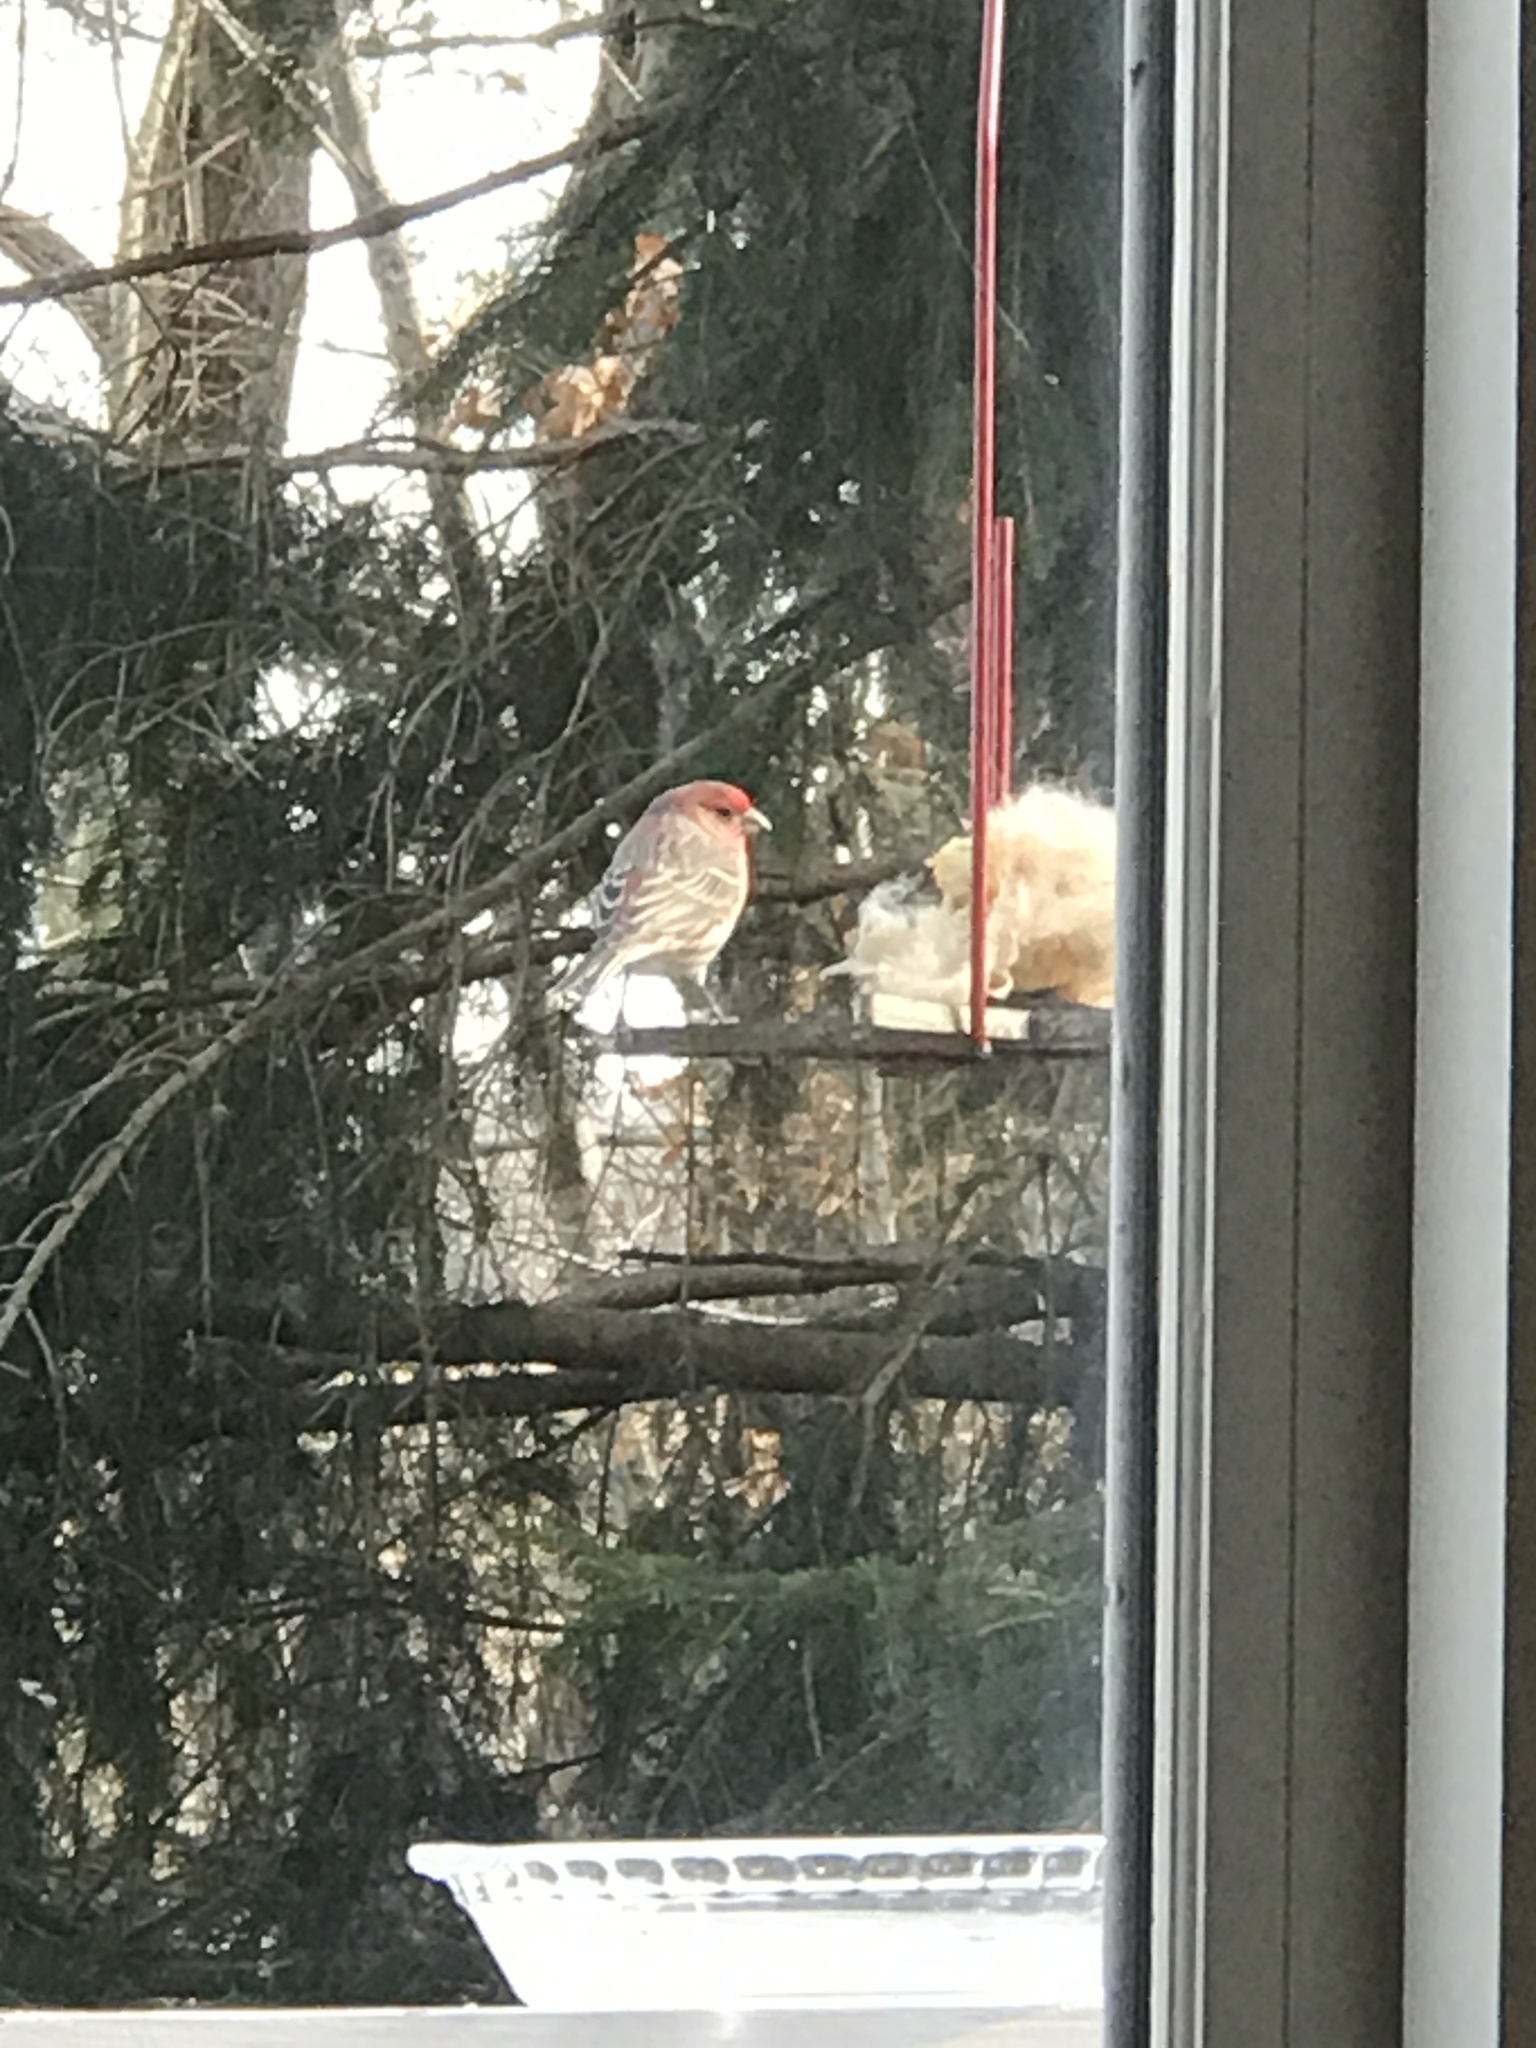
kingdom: Animalia
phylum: Chordata
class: Aves
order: Passeriformes
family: Fringillidae
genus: Haemorhous
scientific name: Haemorhous mexicanus
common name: House finch
